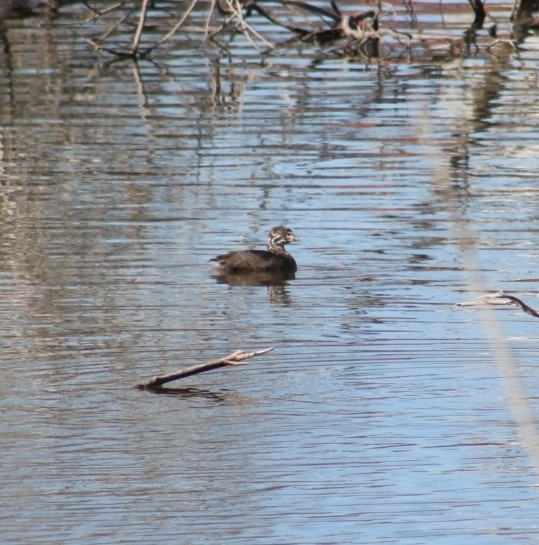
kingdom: Animalia
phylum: Chordata
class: Aves
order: Podicipediformes
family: Podicipedidae
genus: Podilymbus
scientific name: Podilymbus podiceps
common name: Pied-billed grebe
